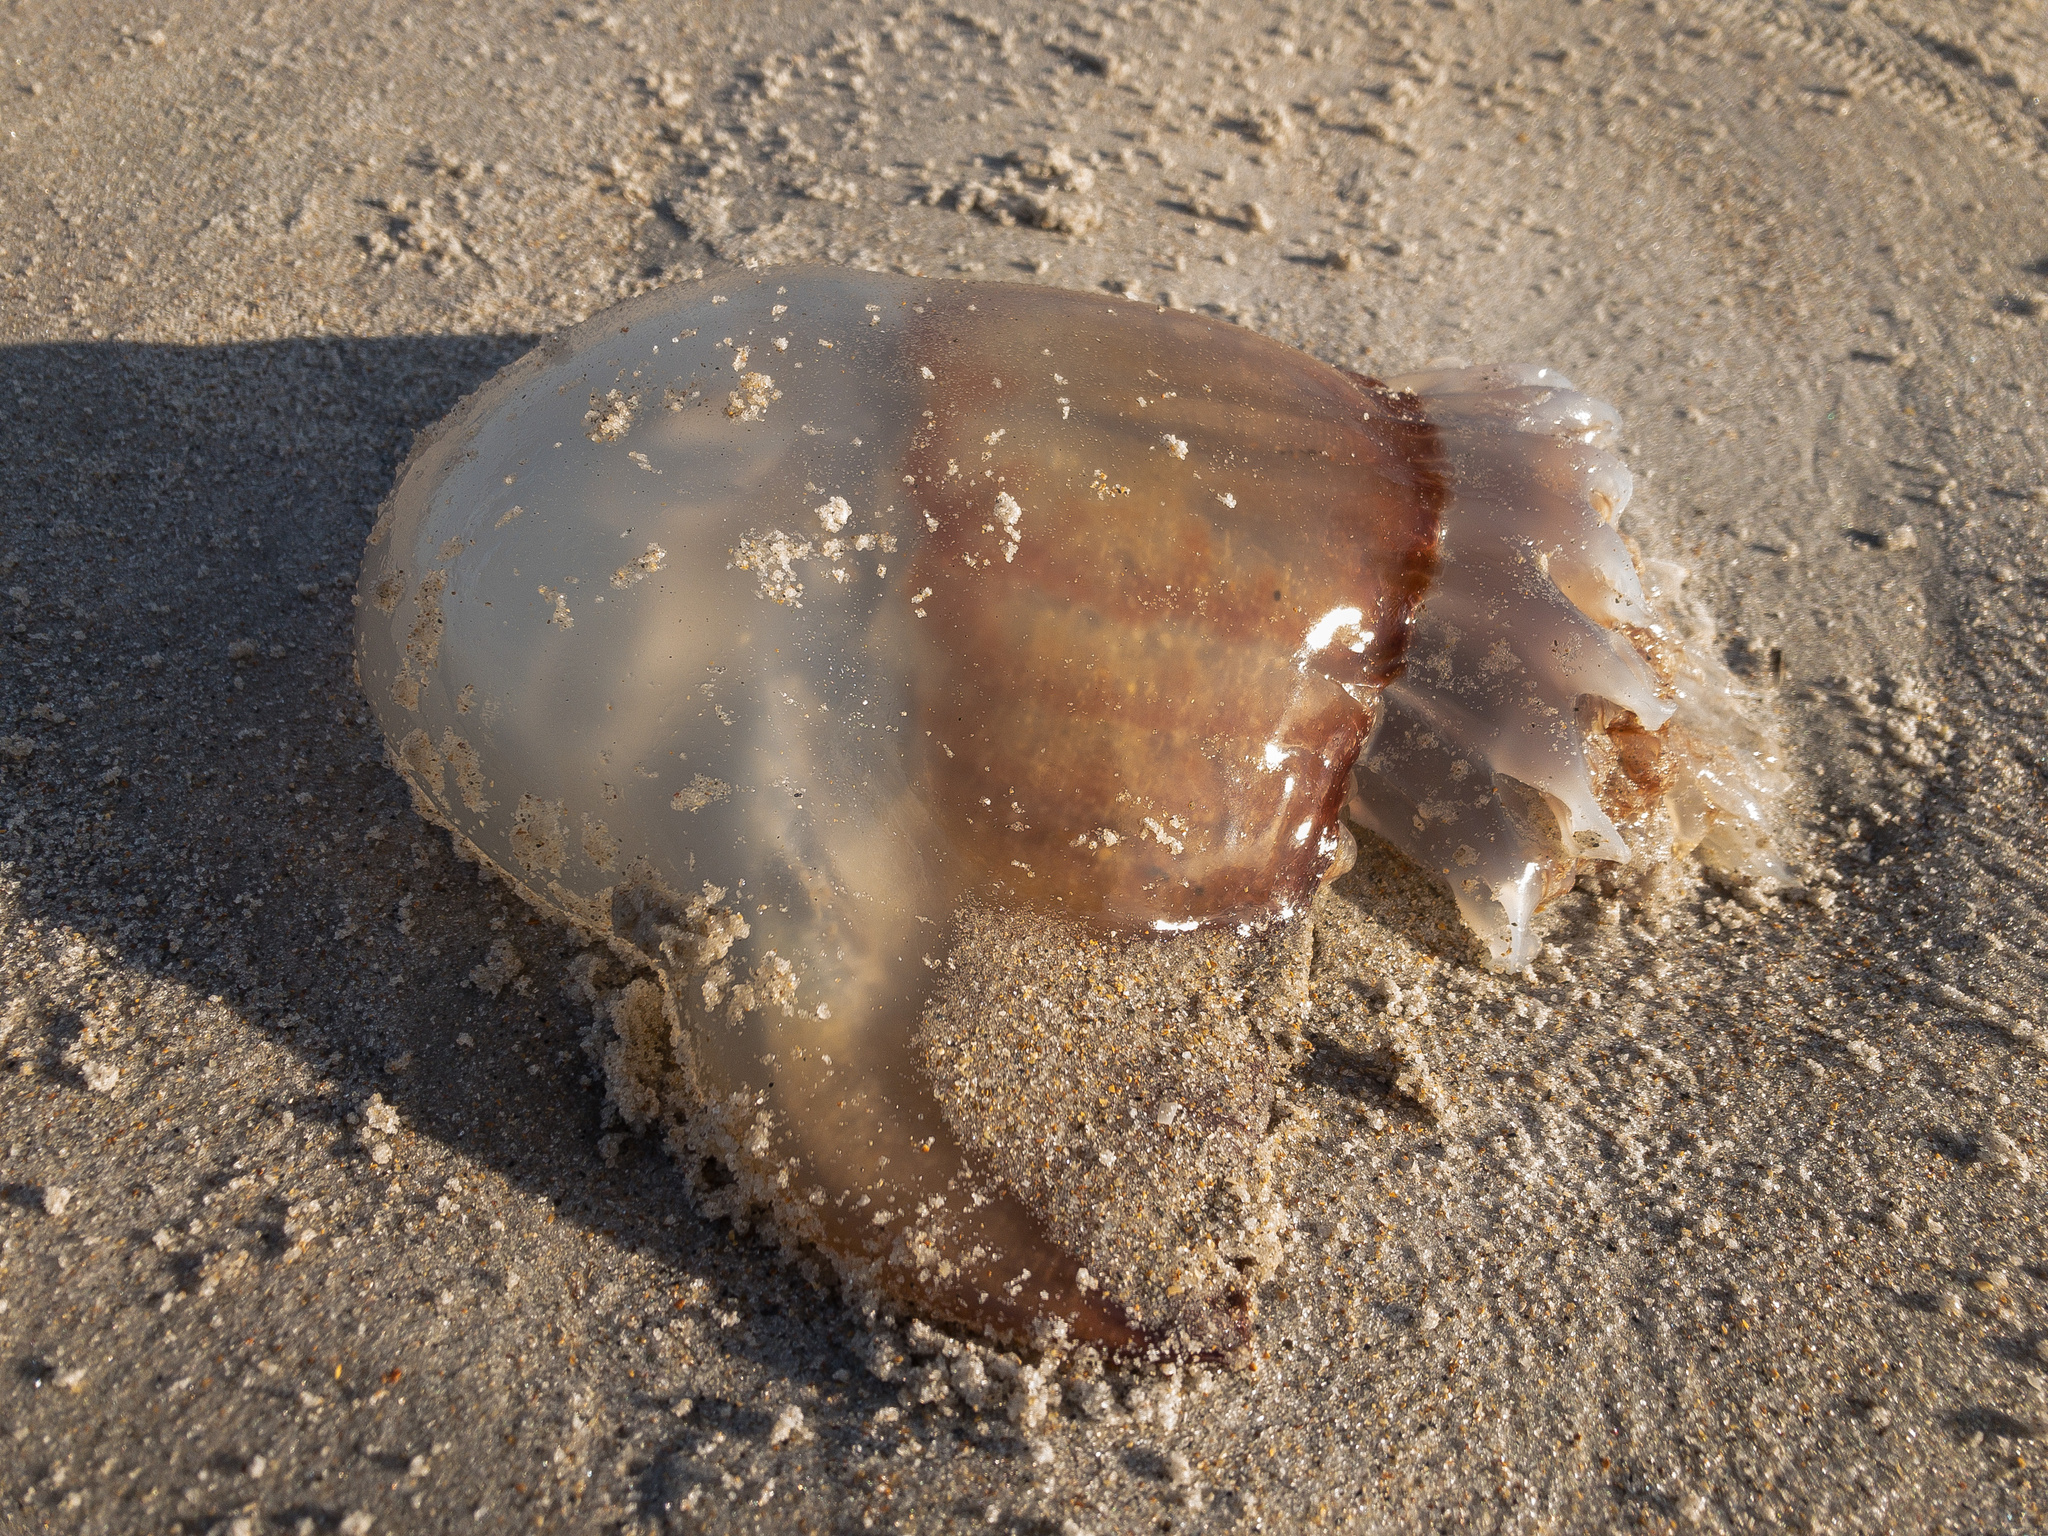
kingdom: Animalia
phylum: Cnidaria
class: Scyphozoa
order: Rhizostomeae
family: Stomolophidae
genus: Stomolophus
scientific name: Stomolophus meleagris
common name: Cabbagehead
